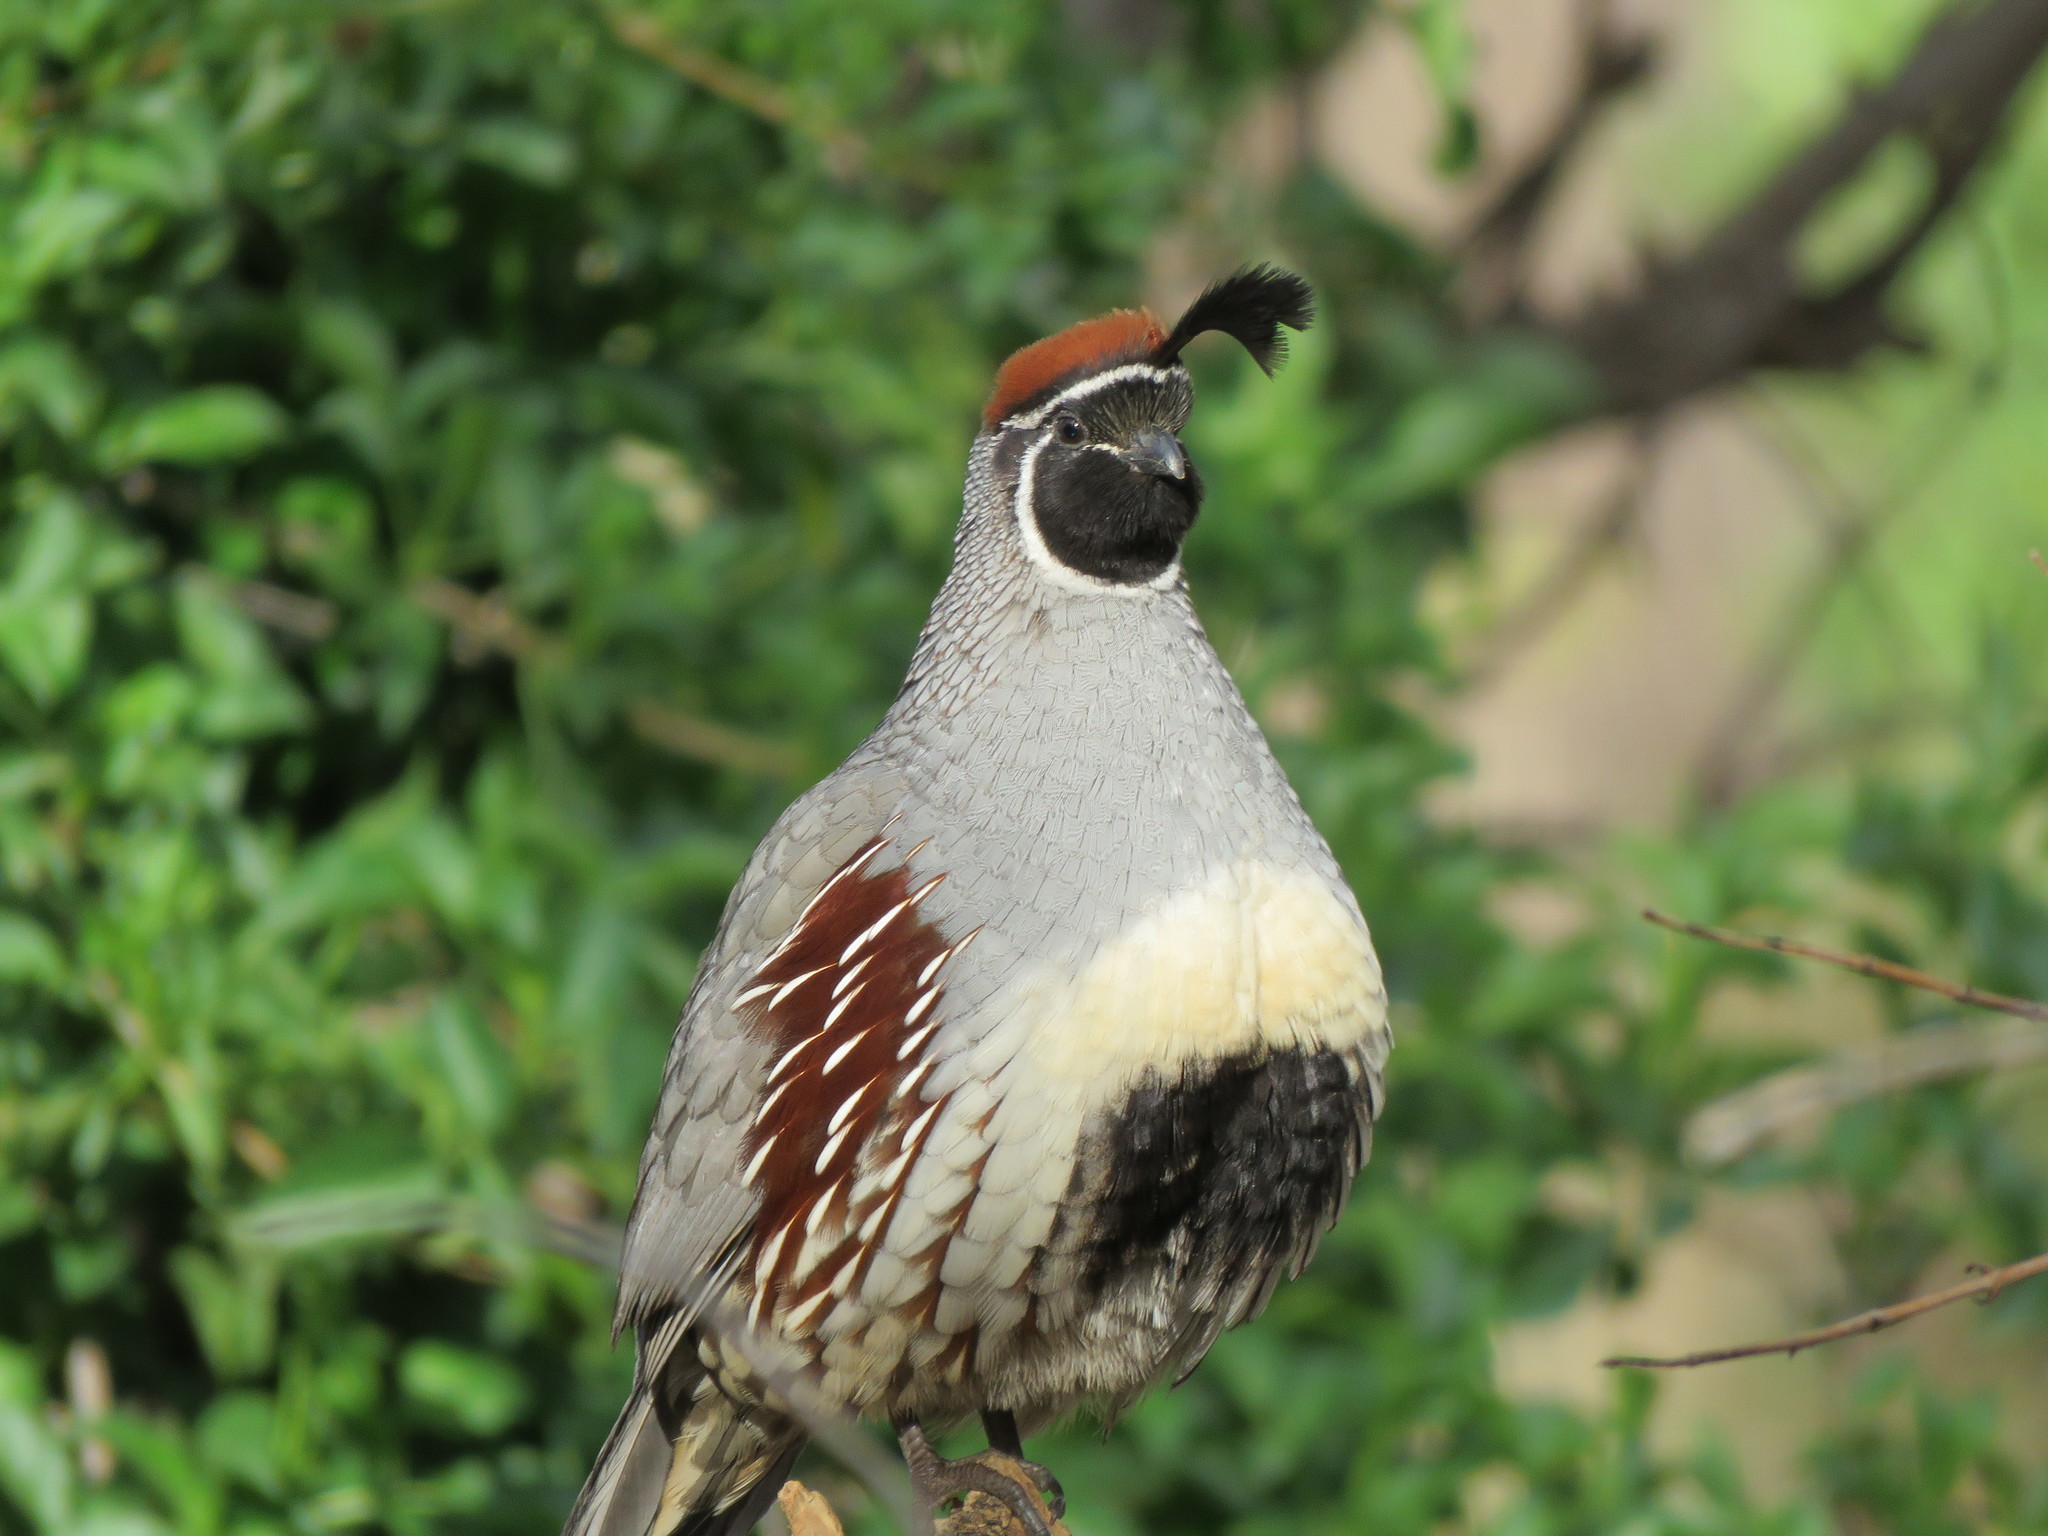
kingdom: Animalia
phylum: Chordata
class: Aves
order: Galliformes
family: Odontophoridae
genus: Callipepla
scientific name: Callipepla gambelii
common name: Gambel's quail
